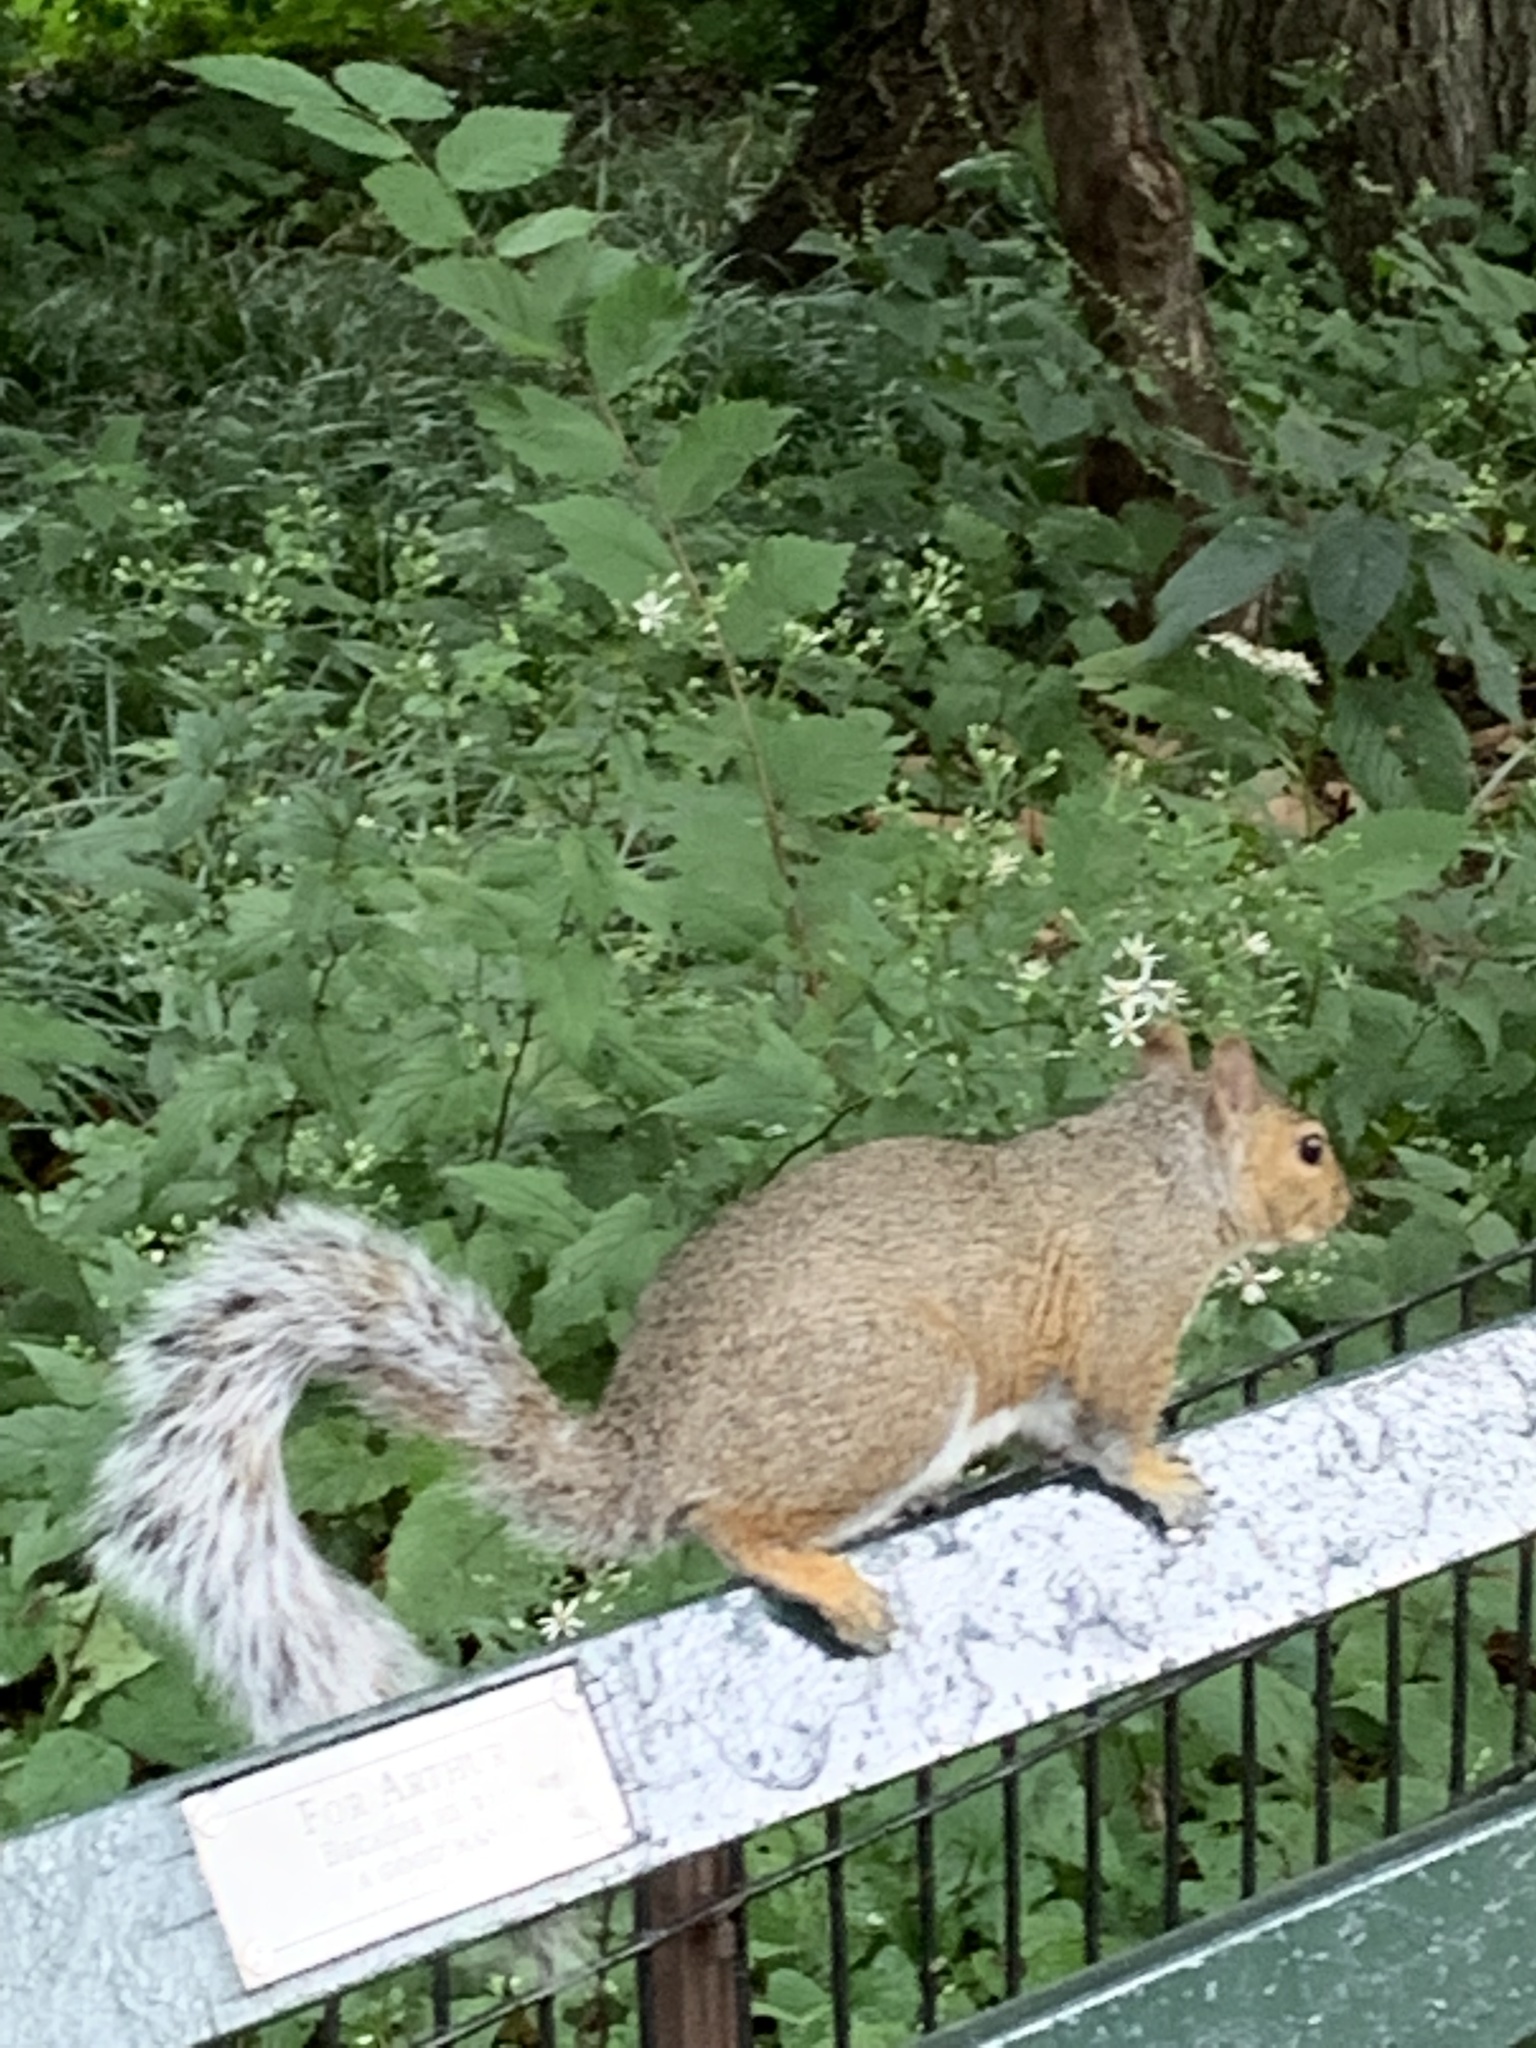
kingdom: Animalia
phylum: Chordata
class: Mammalia
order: Rodentia
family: Sciuridae
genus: Sciurus
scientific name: Sciurus carolinensis
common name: Eastern gray squirrel
